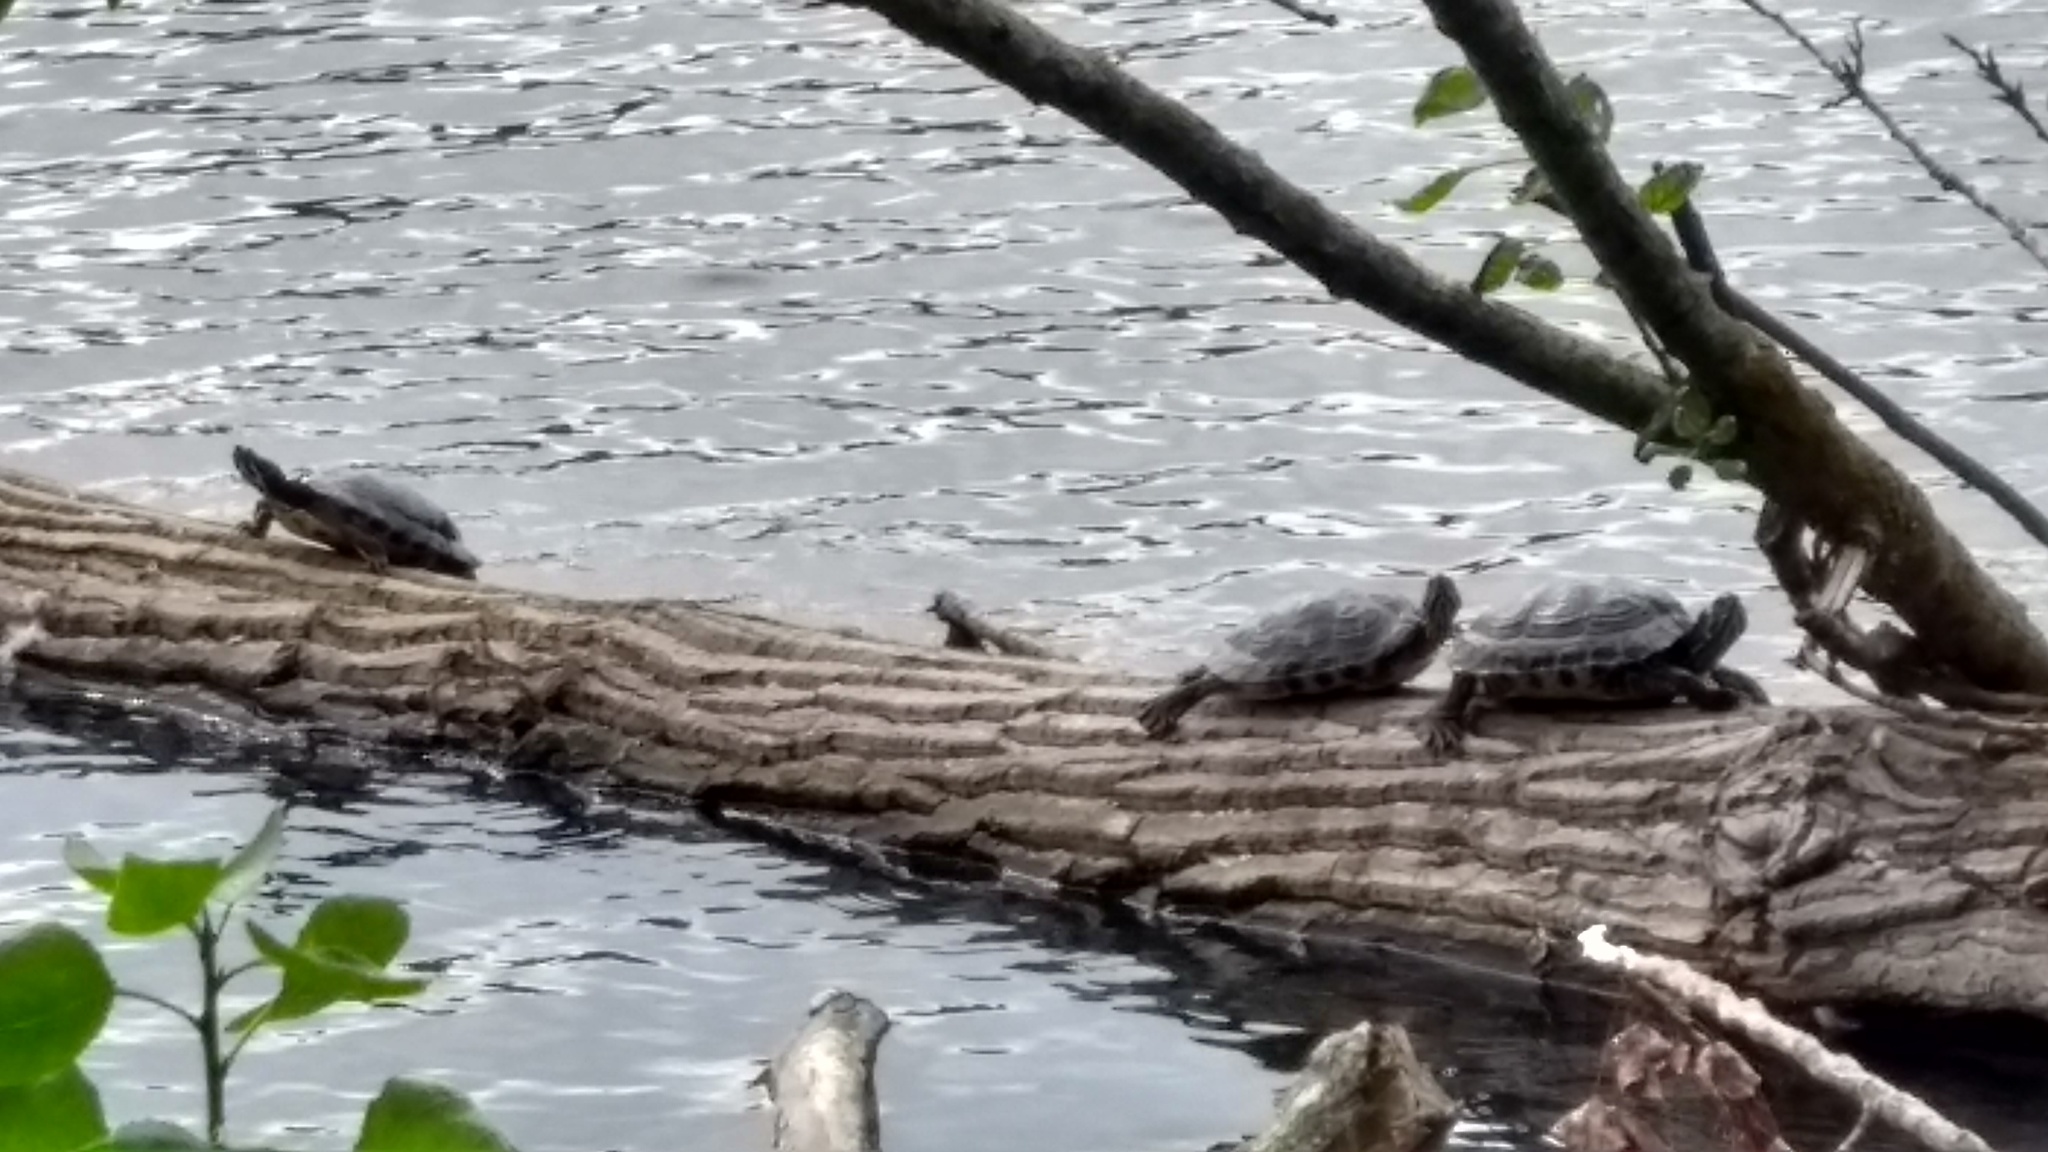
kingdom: Animalia
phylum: Chordata
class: Testudines
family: Emydidae
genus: Trachemys
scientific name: Trachemys scripta
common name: Slider
